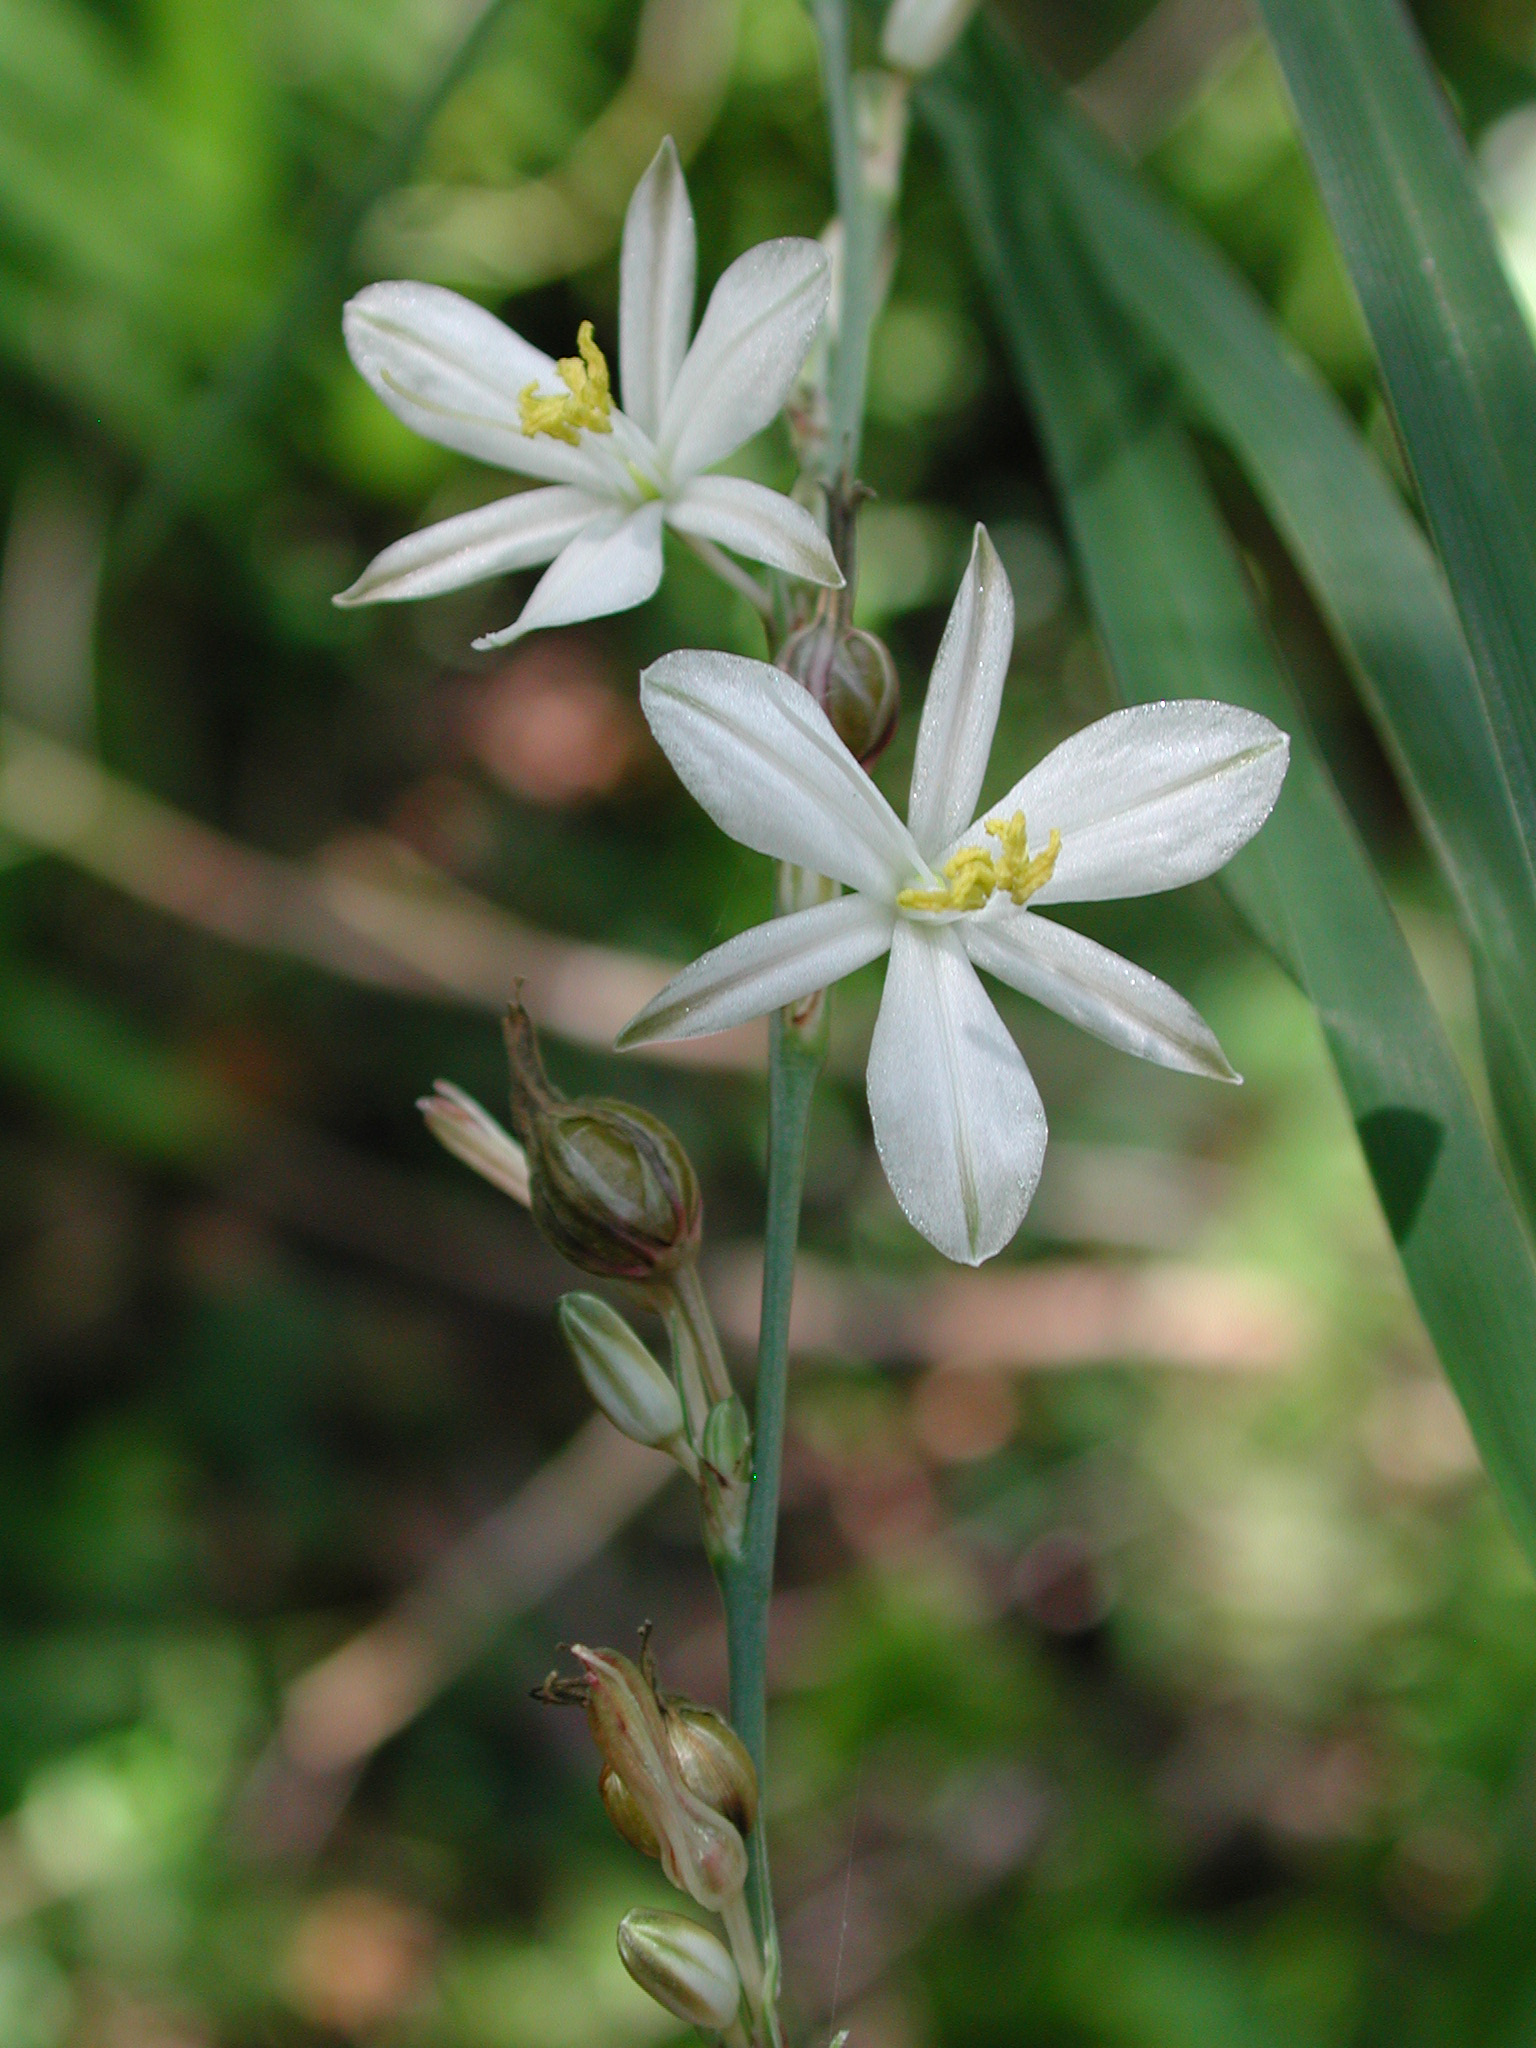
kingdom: Plantae
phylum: Tracheophyta
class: Liliopsida
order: Asparagales
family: Asparagaceae
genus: Chlorophytum
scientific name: Chlorophytum cooperi
